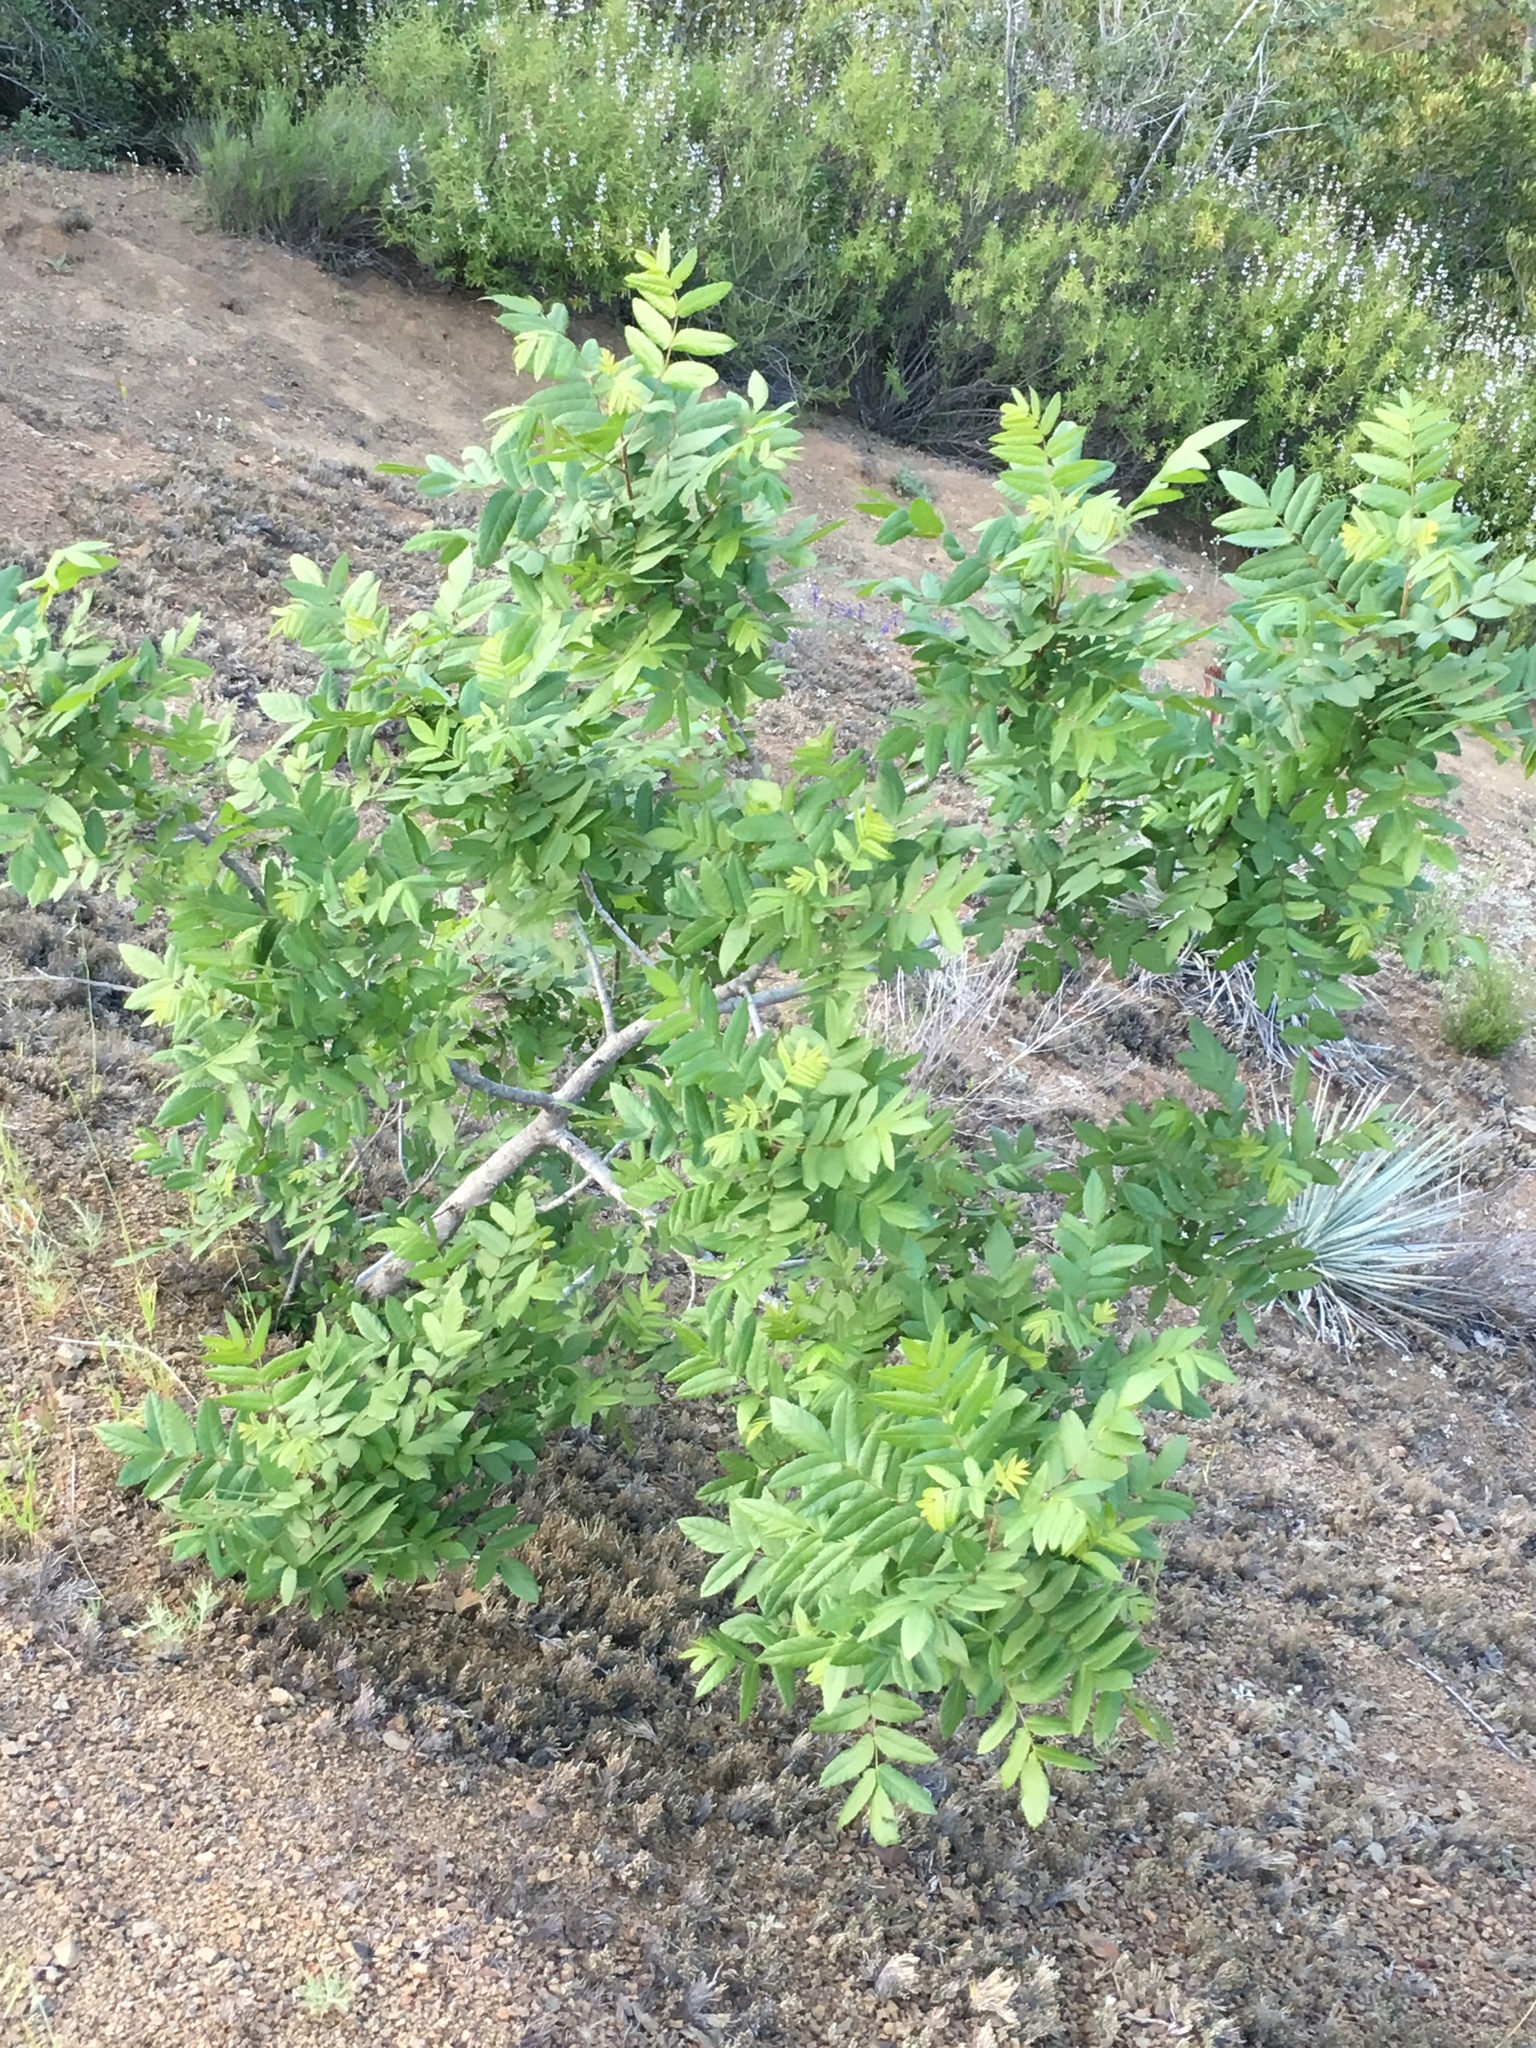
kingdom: Plantae
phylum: Tracheophyta
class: Magnoliopsida
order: Fagales
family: Juglandaceae
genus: Juglans
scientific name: Juglans californica
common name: Southern california black walnut
